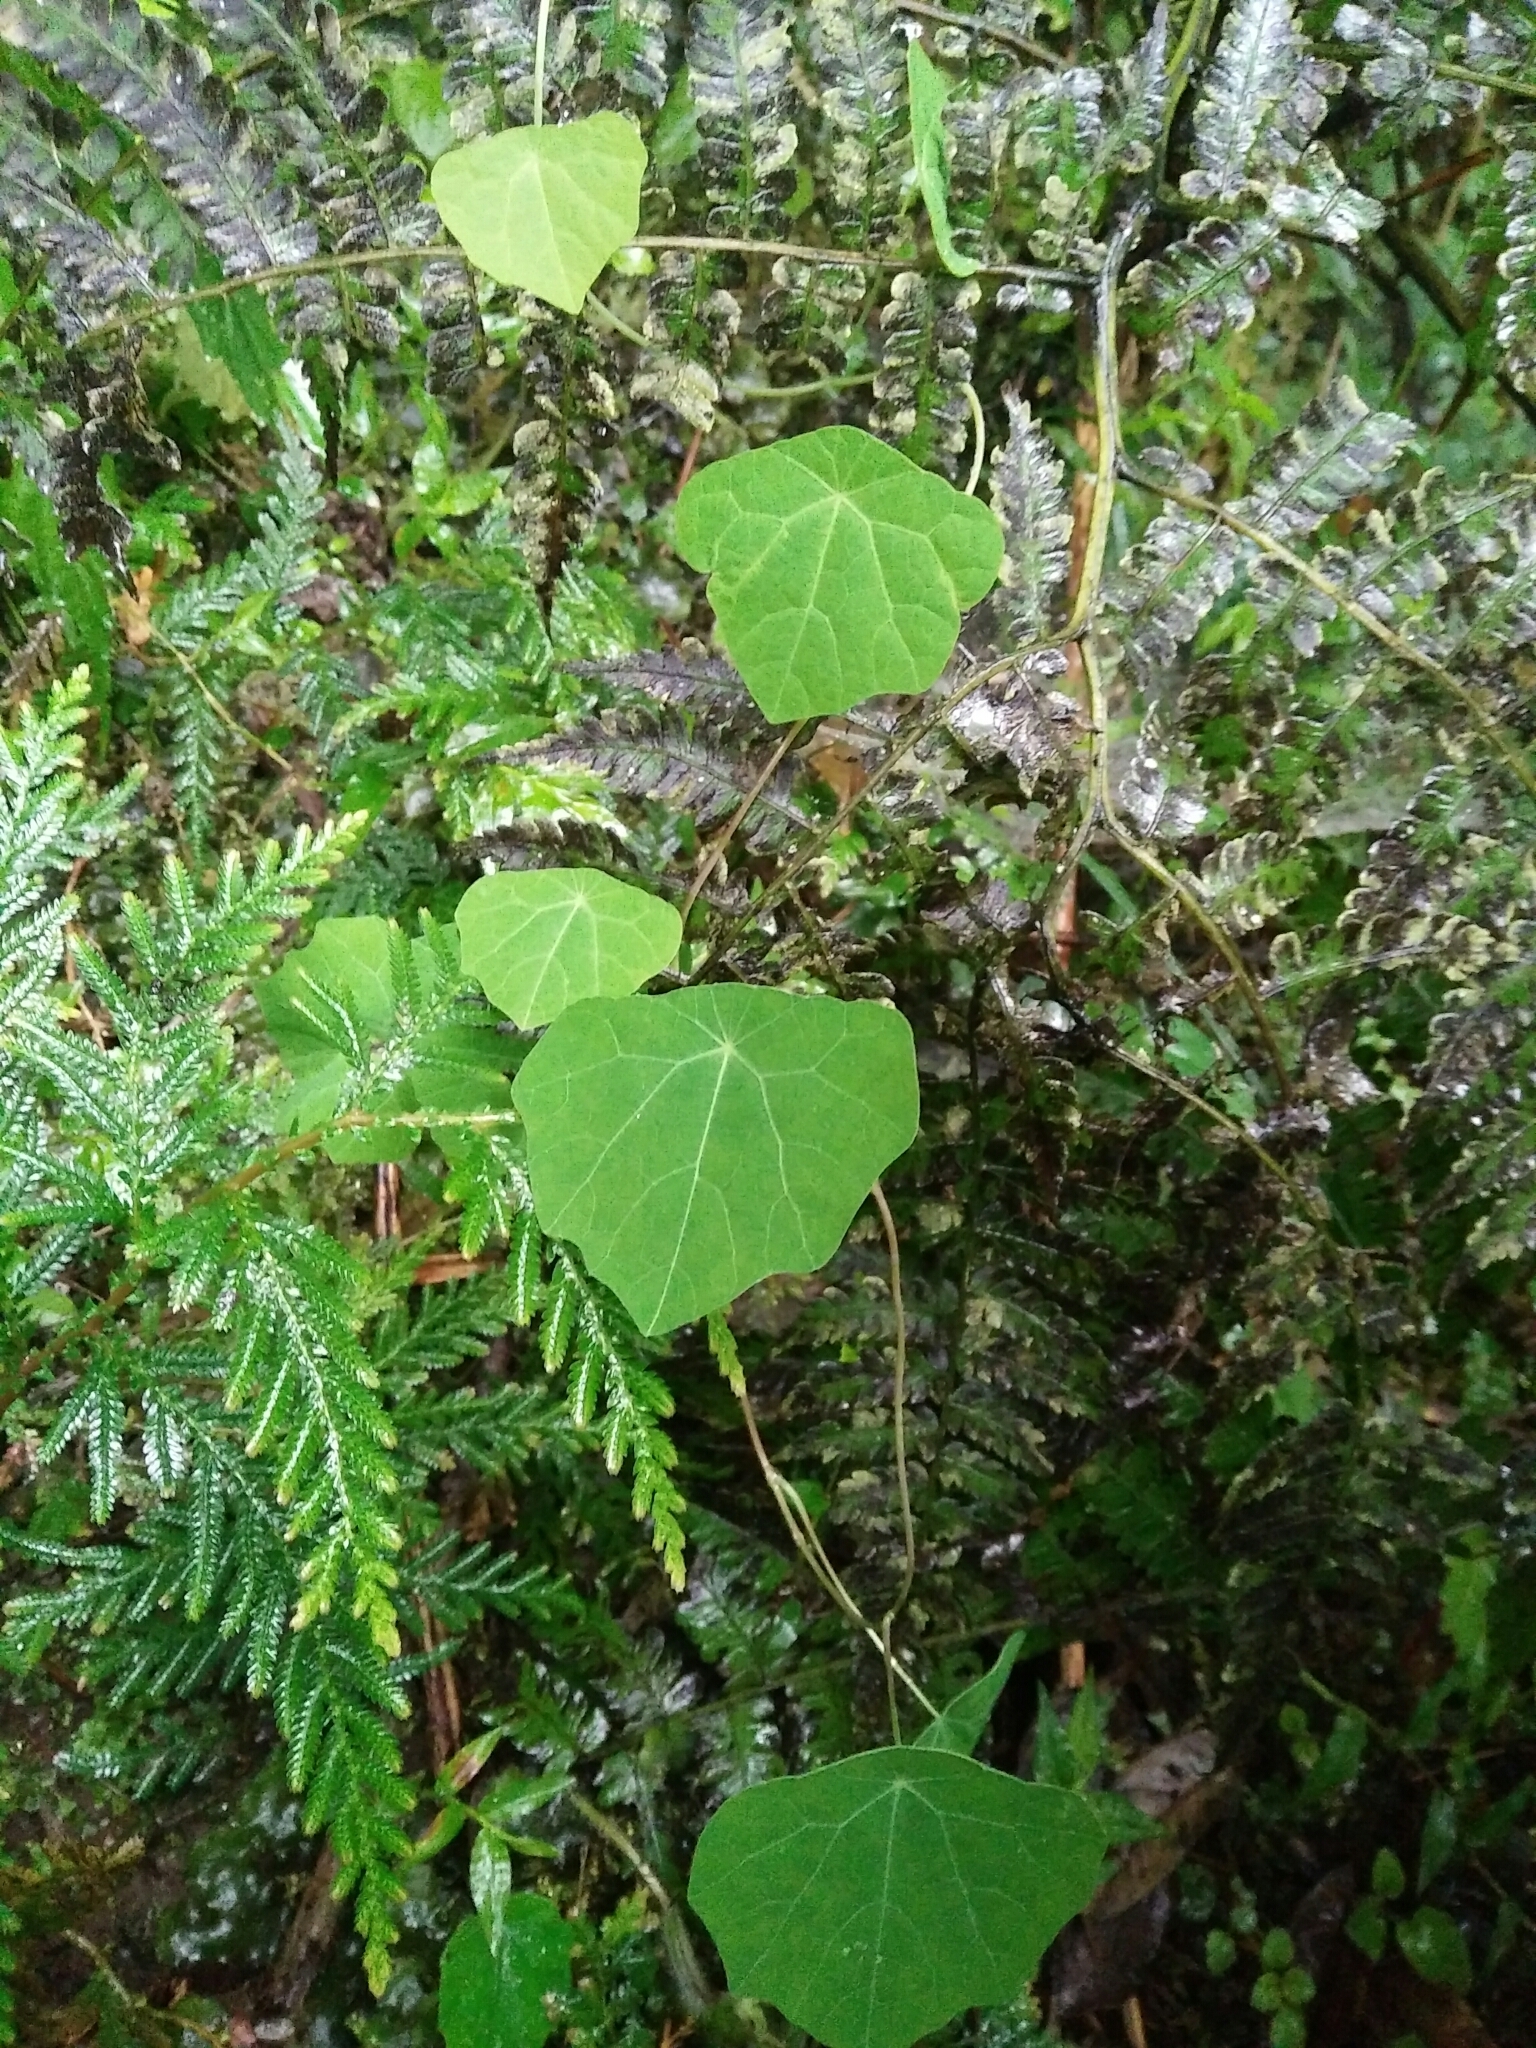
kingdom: Plantae
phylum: Tracheophyta
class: Magnoliopsida
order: Ranunculales
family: Menispermaceae
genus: Stephania
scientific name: Stephania cephalantha
